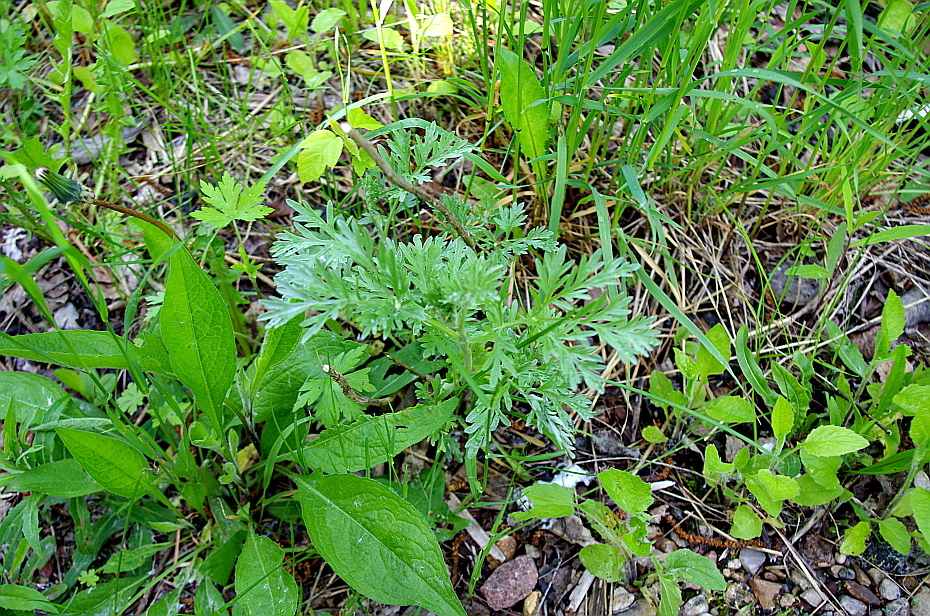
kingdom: Plantae
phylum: Tracheophyta
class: Magnoliopsida
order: Asterales
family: Asteraceae
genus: Artemisia
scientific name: Artemisia absinthium
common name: Wormwood
